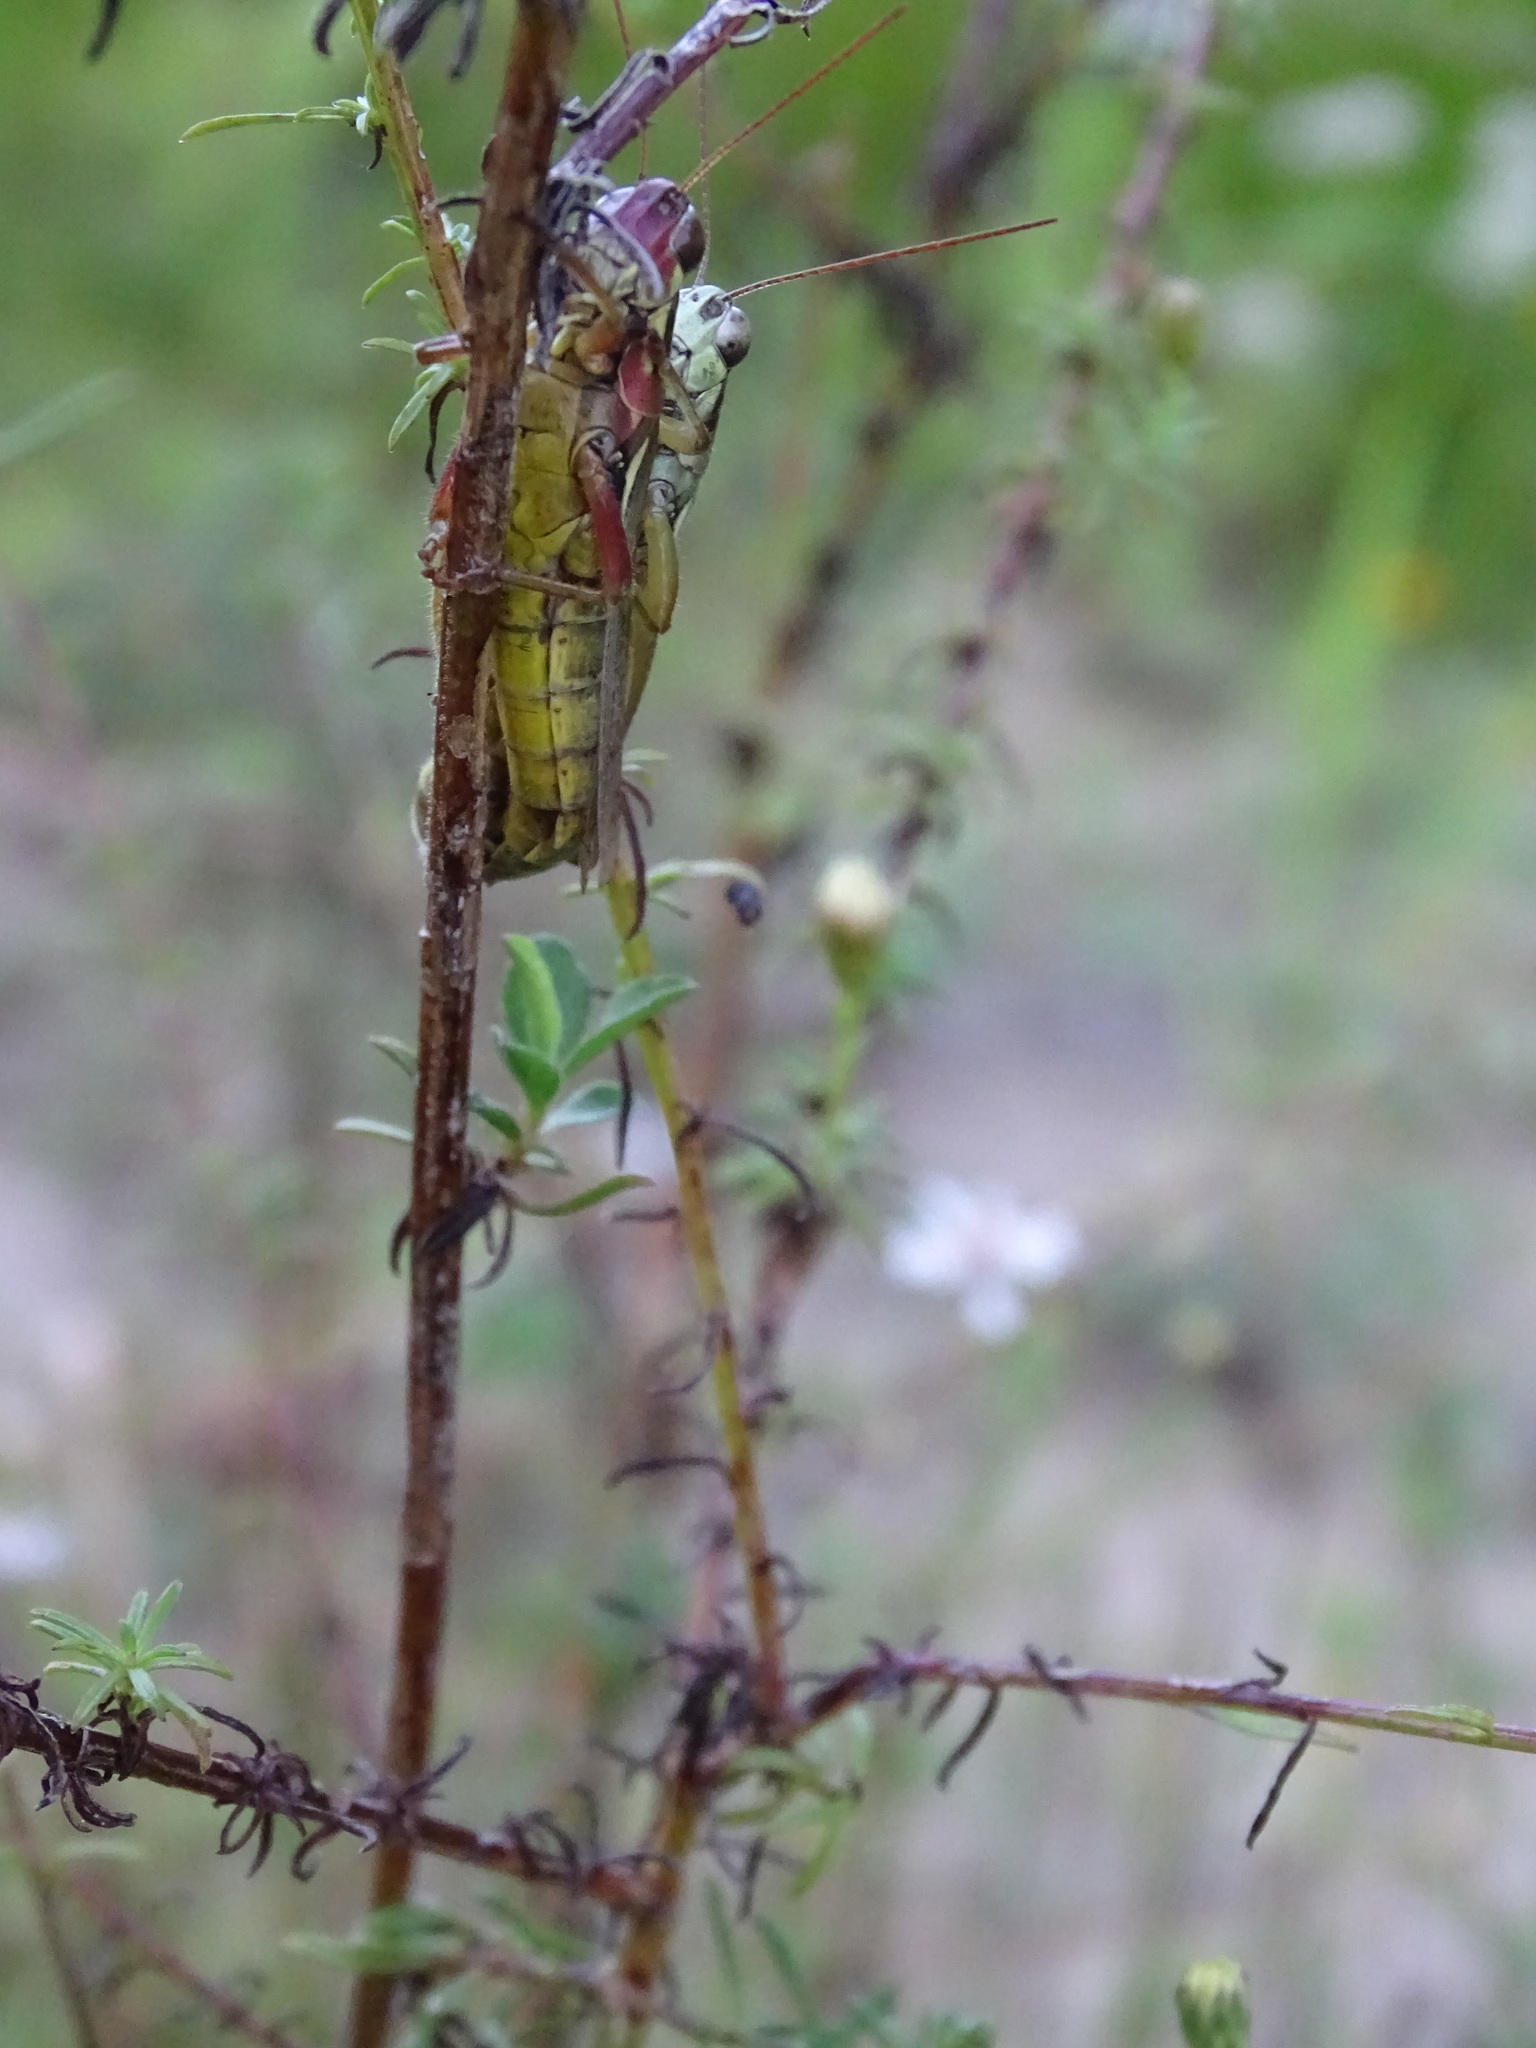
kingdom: Animalia
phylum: Arthropoda
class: Insecta
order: Orthoptera
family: Acrididae
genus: Paroxya
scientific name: Paroxya atlantica
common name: Atlantic grasshopper
